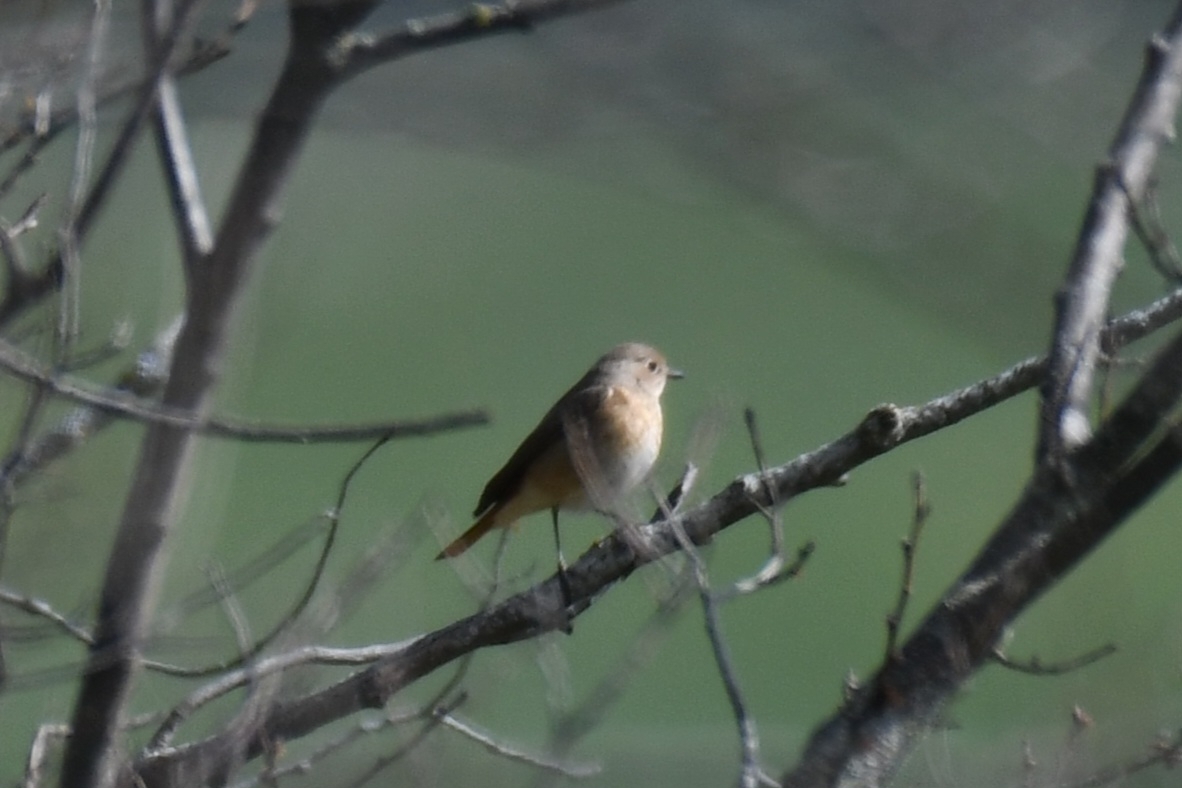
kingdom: Animalia
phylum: Chordata
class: Aves
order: Passeriformes
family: Muscicapidae
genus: Phoenicurus
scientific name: Phoenicurus phoenicurus
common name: Common redstart
